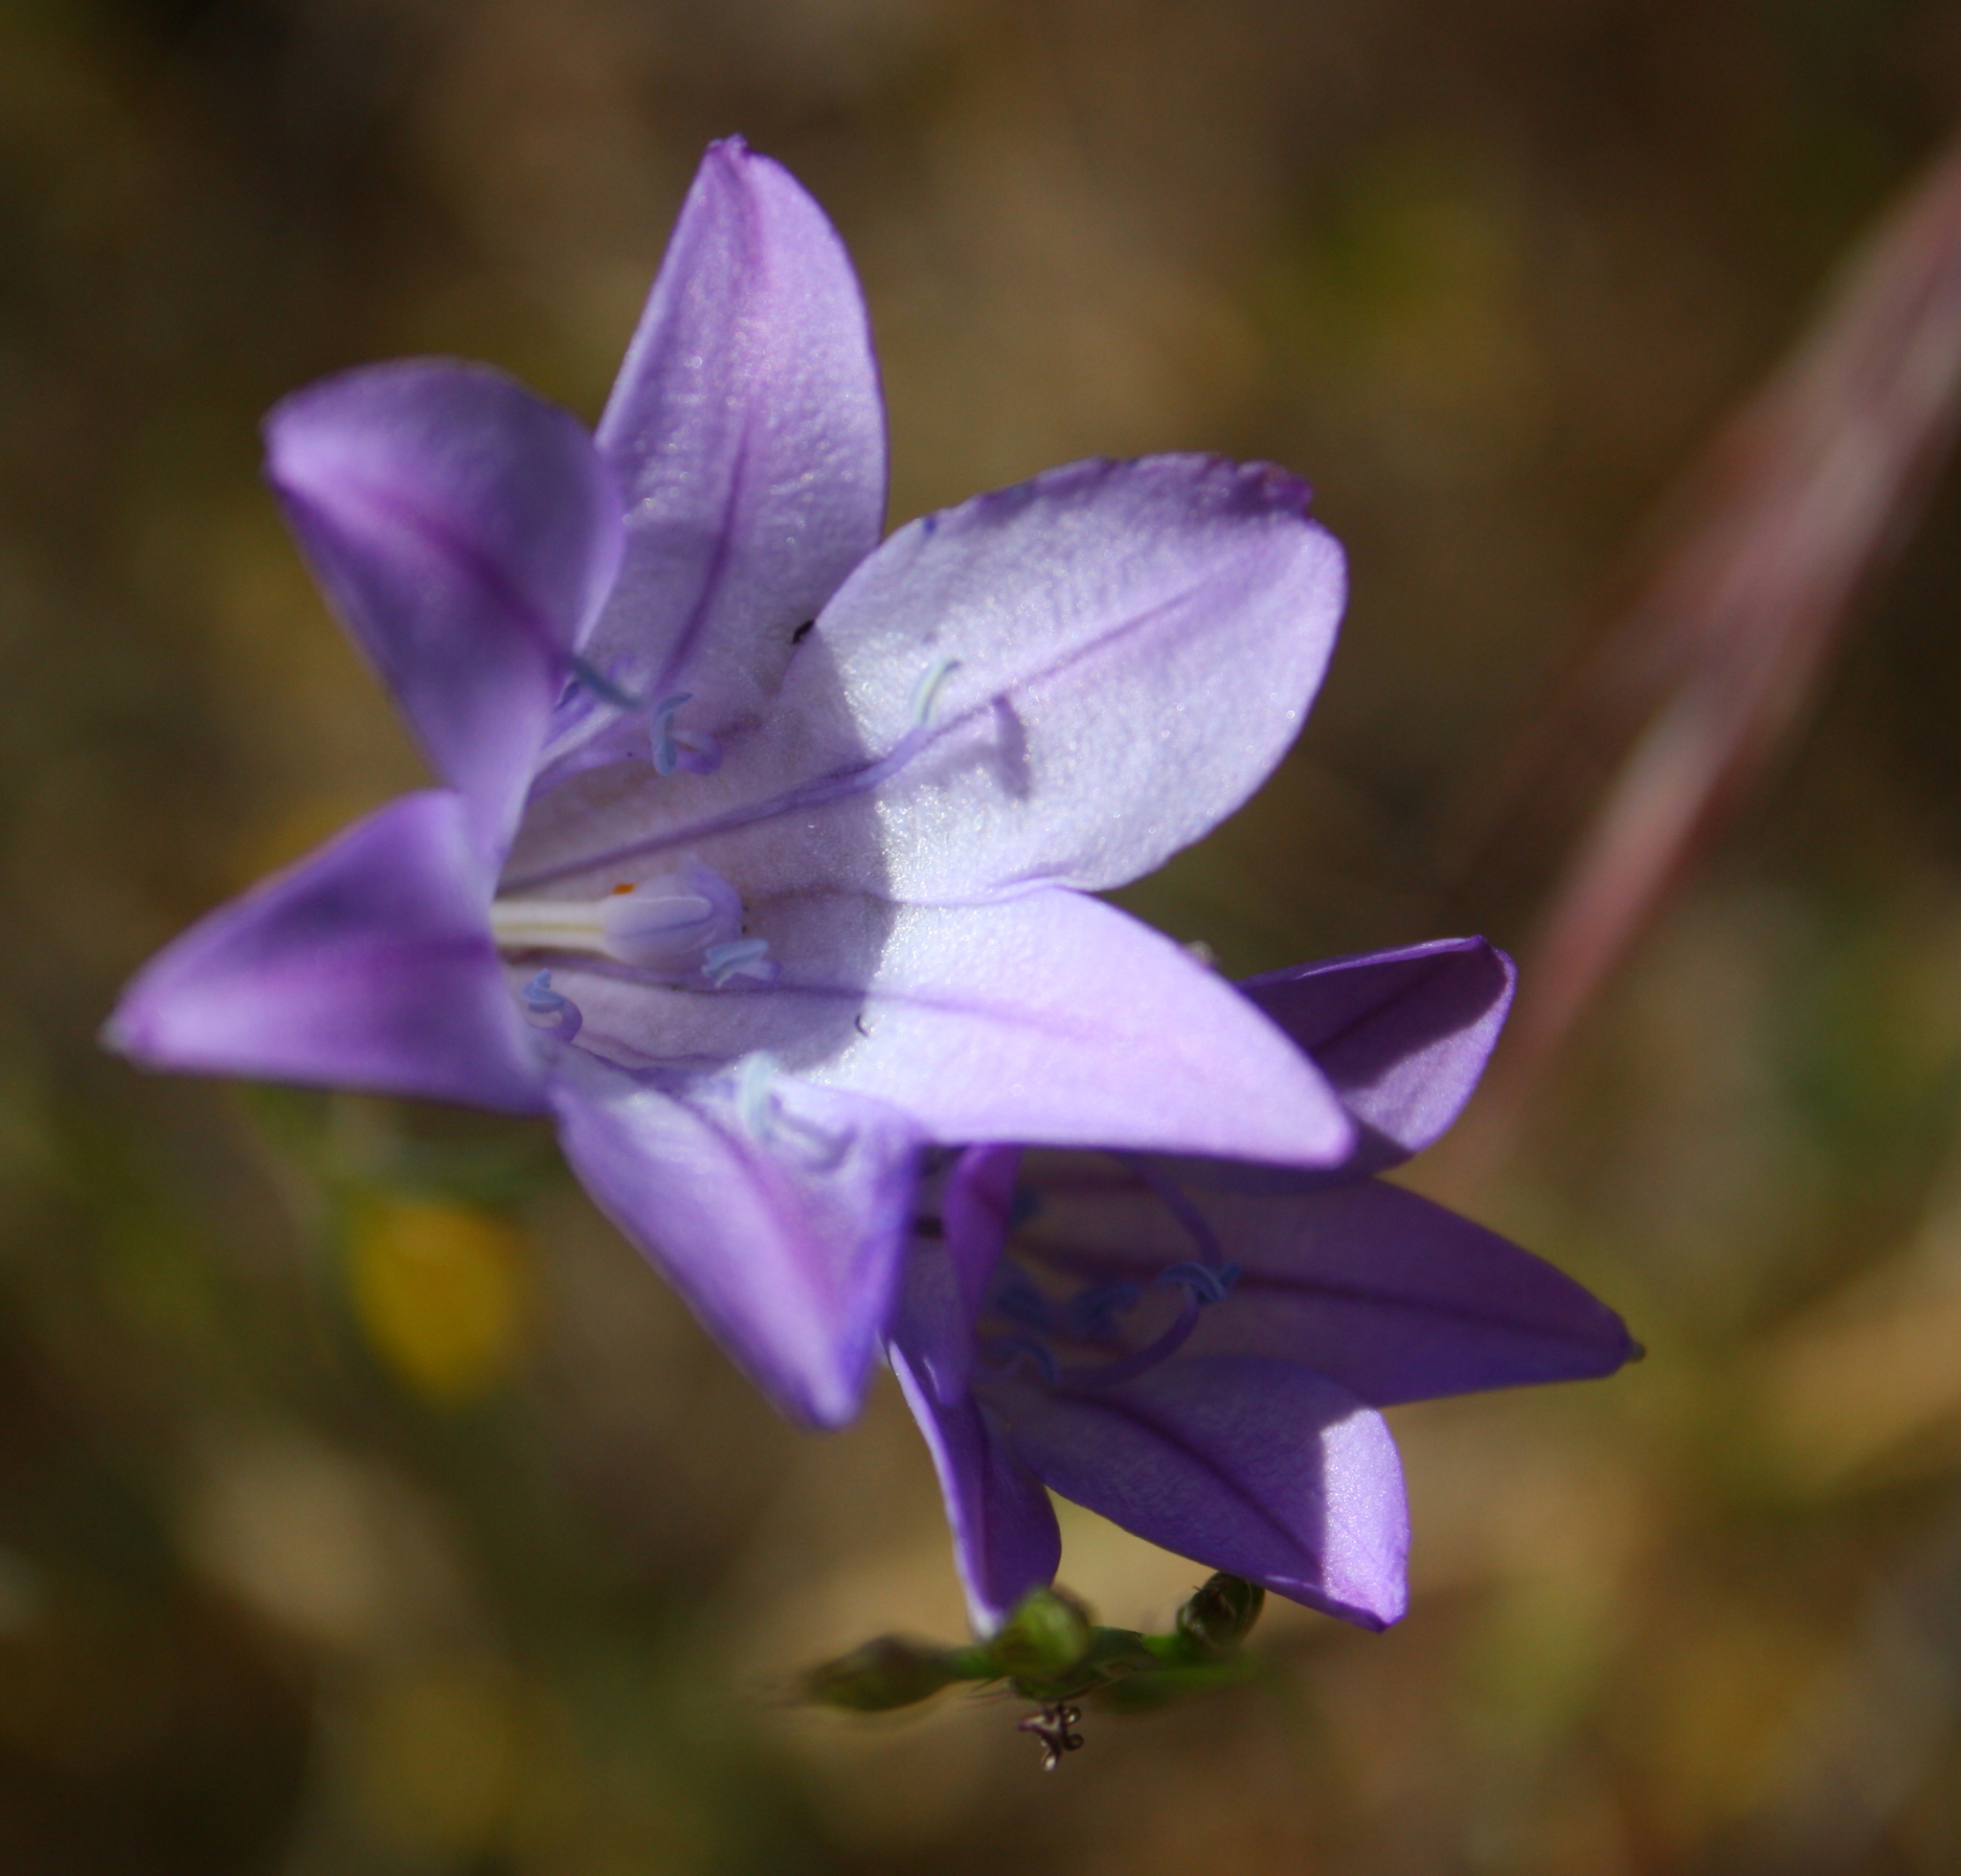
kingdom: Plantae
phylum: Tracheophyta
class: Liliopsida
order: Asparagales
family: Asparagaceae
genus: Triteleia
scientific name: Triteleia laxa
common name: Triplet-lily
